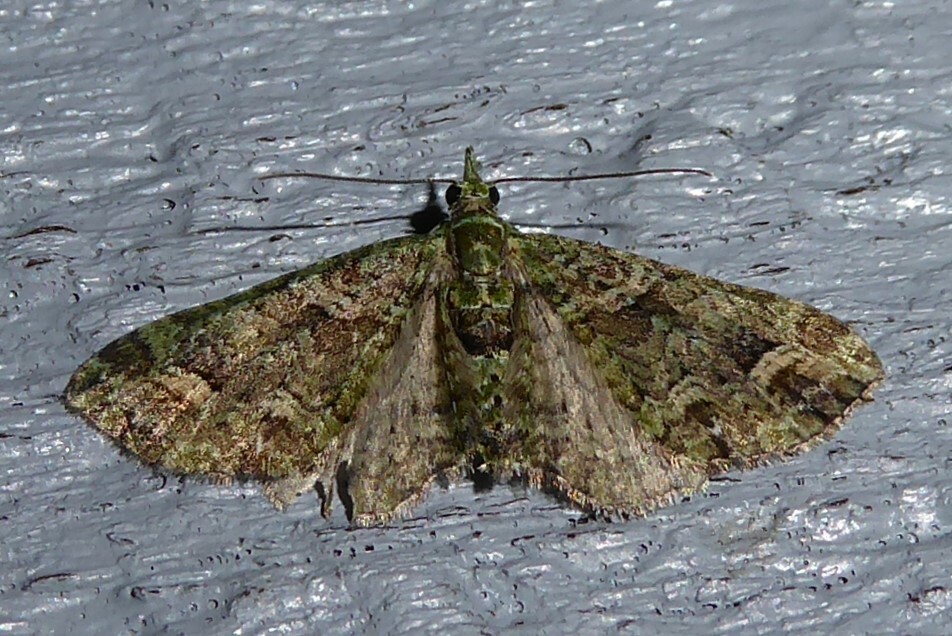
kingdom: Animalia
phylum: Arthropoda
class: Insecta
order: Lepidoptera
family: Geometridae
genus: Idaea
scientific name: Idaea mutanda
